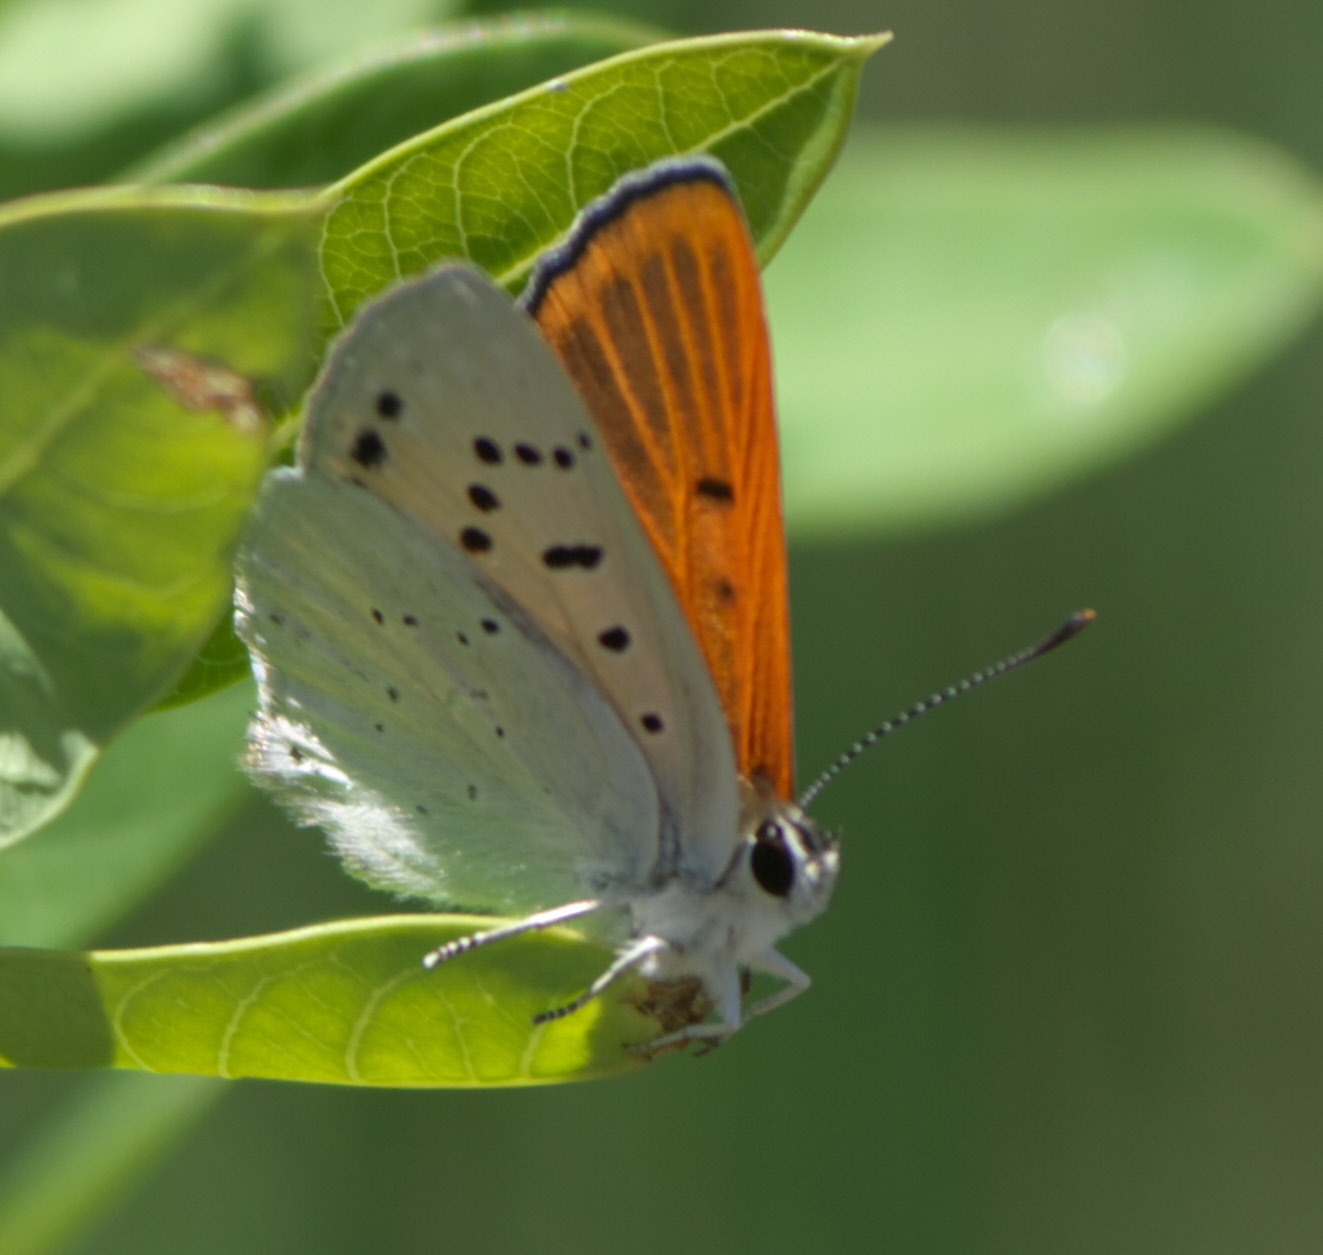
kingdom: Animalia
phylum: Arthropoda
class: Insecta
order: Lepidoptera
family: Lycaenidae
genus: Tharsalea
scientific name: Tharsalea rubidus
